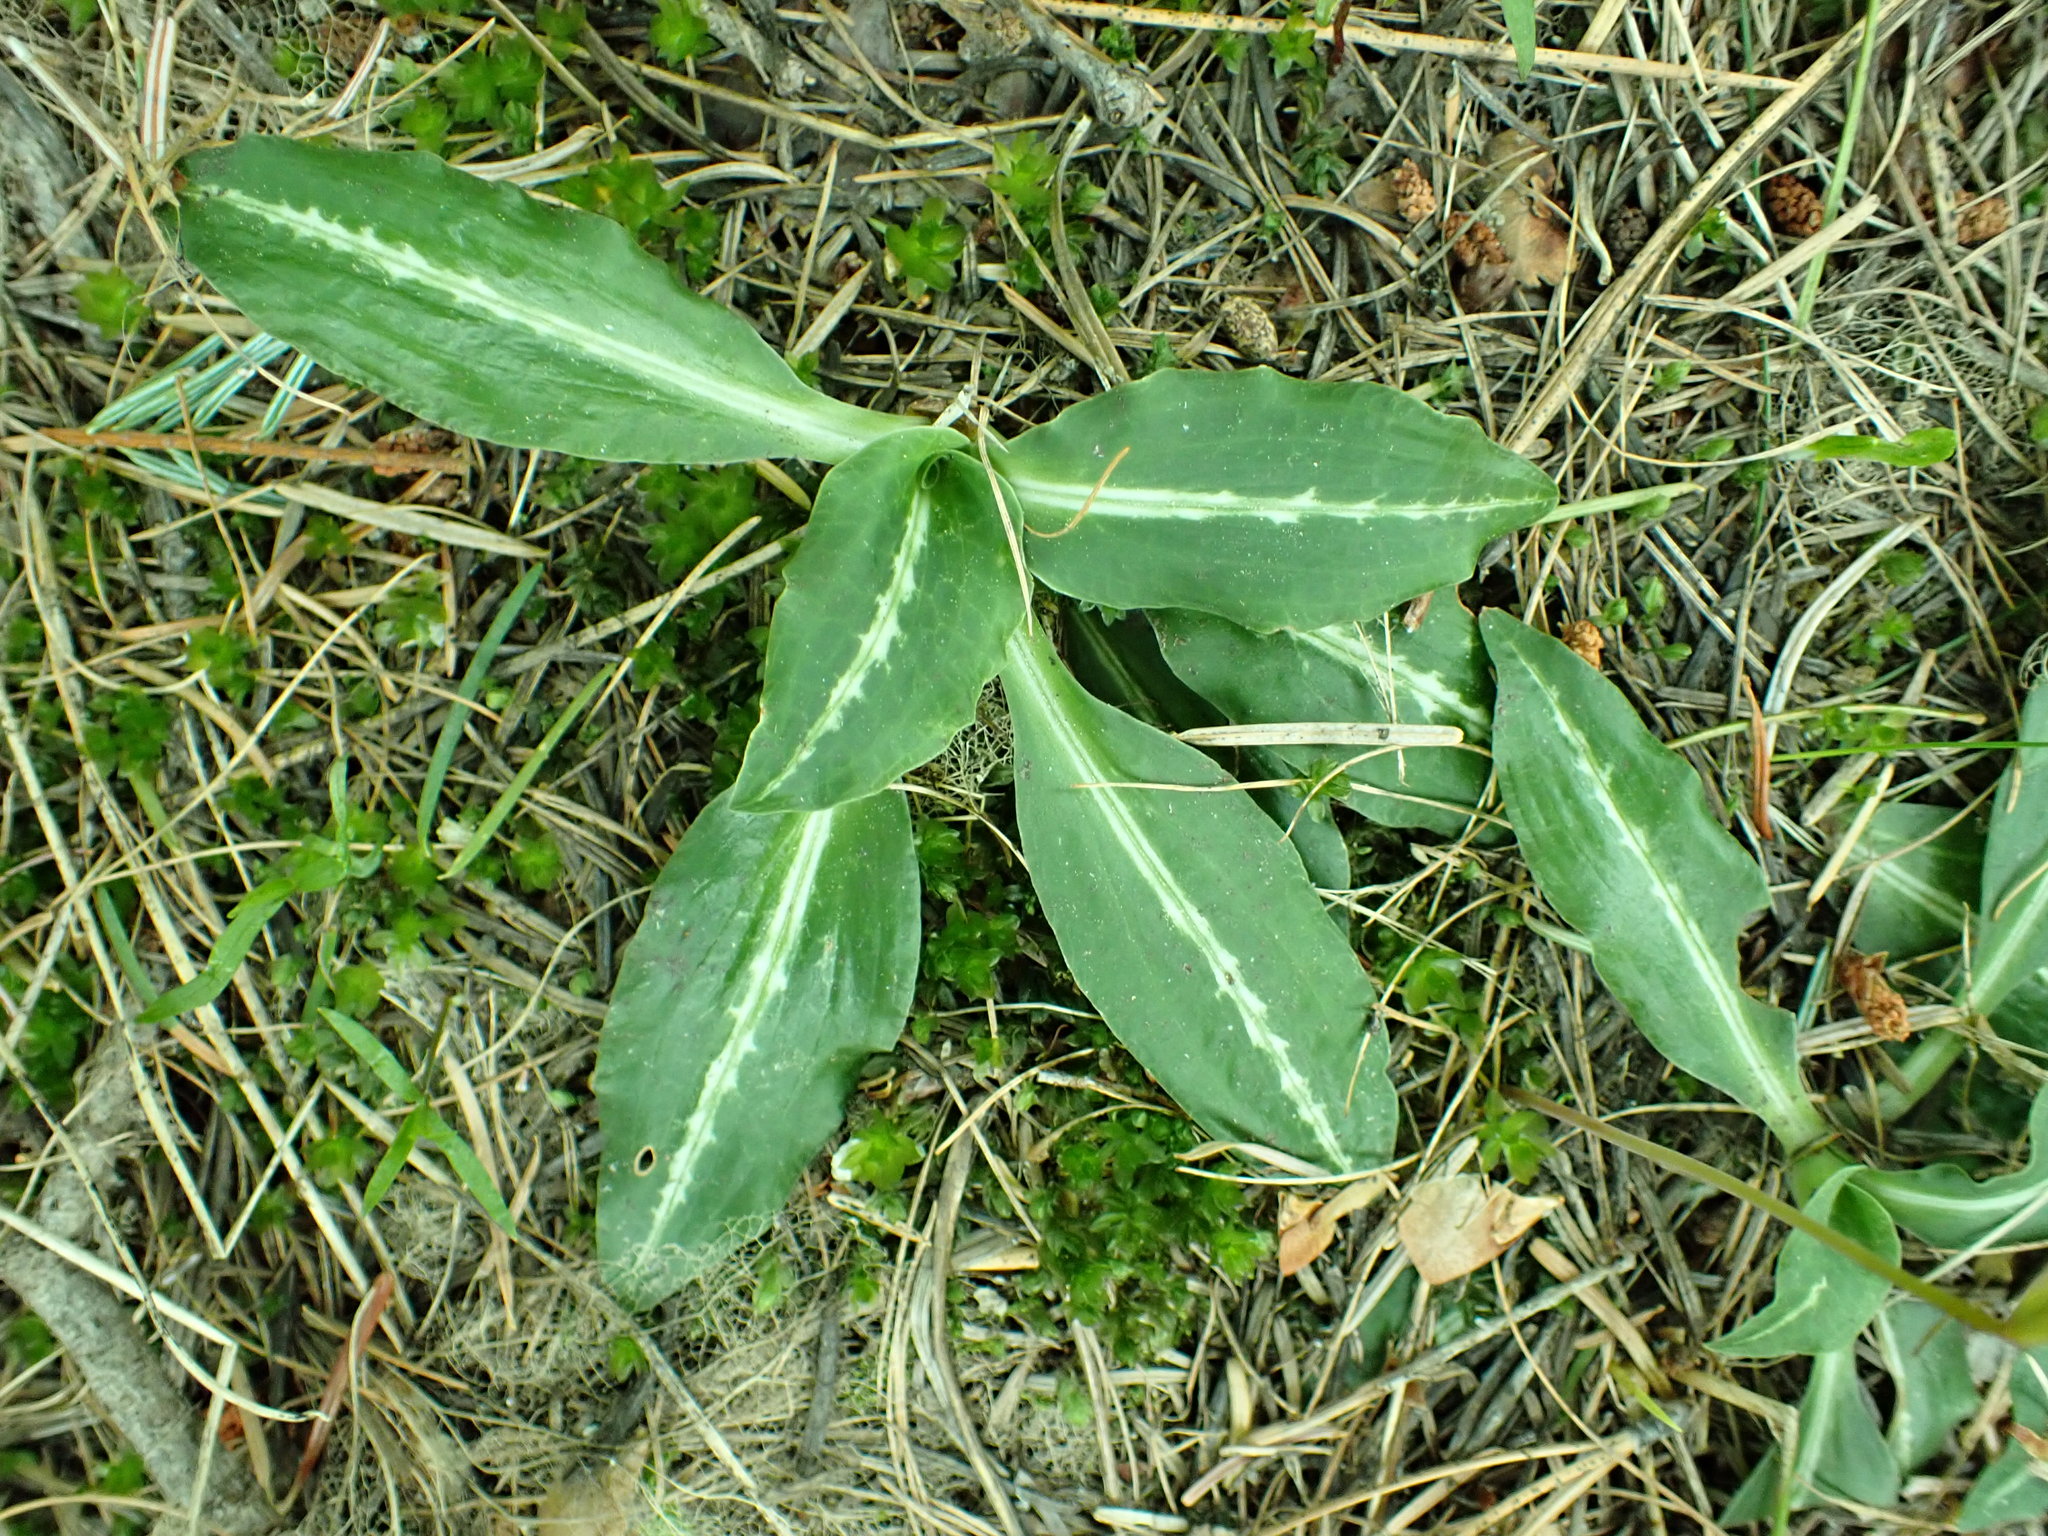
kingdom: Plantae
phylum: Tracheophyta
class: Liliopsida
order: Asparagales
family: Orchidaceae
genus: Goodyera
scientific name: Goodyera oblongifolia
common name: Giant rattlesnake-plantain
